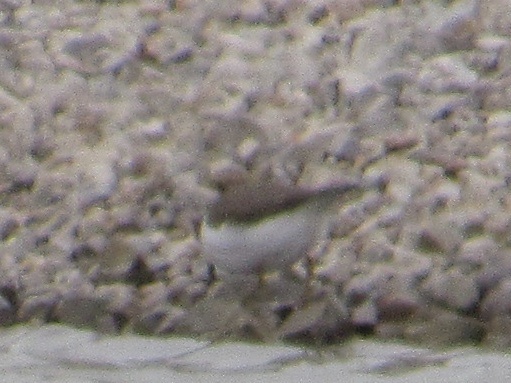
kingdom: Animalia
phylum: Chordata
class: Aves
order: Charadriiformes
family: Scolopacidae
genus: Actitis
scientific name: Actitis macularius
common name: Spotted sandpiper
